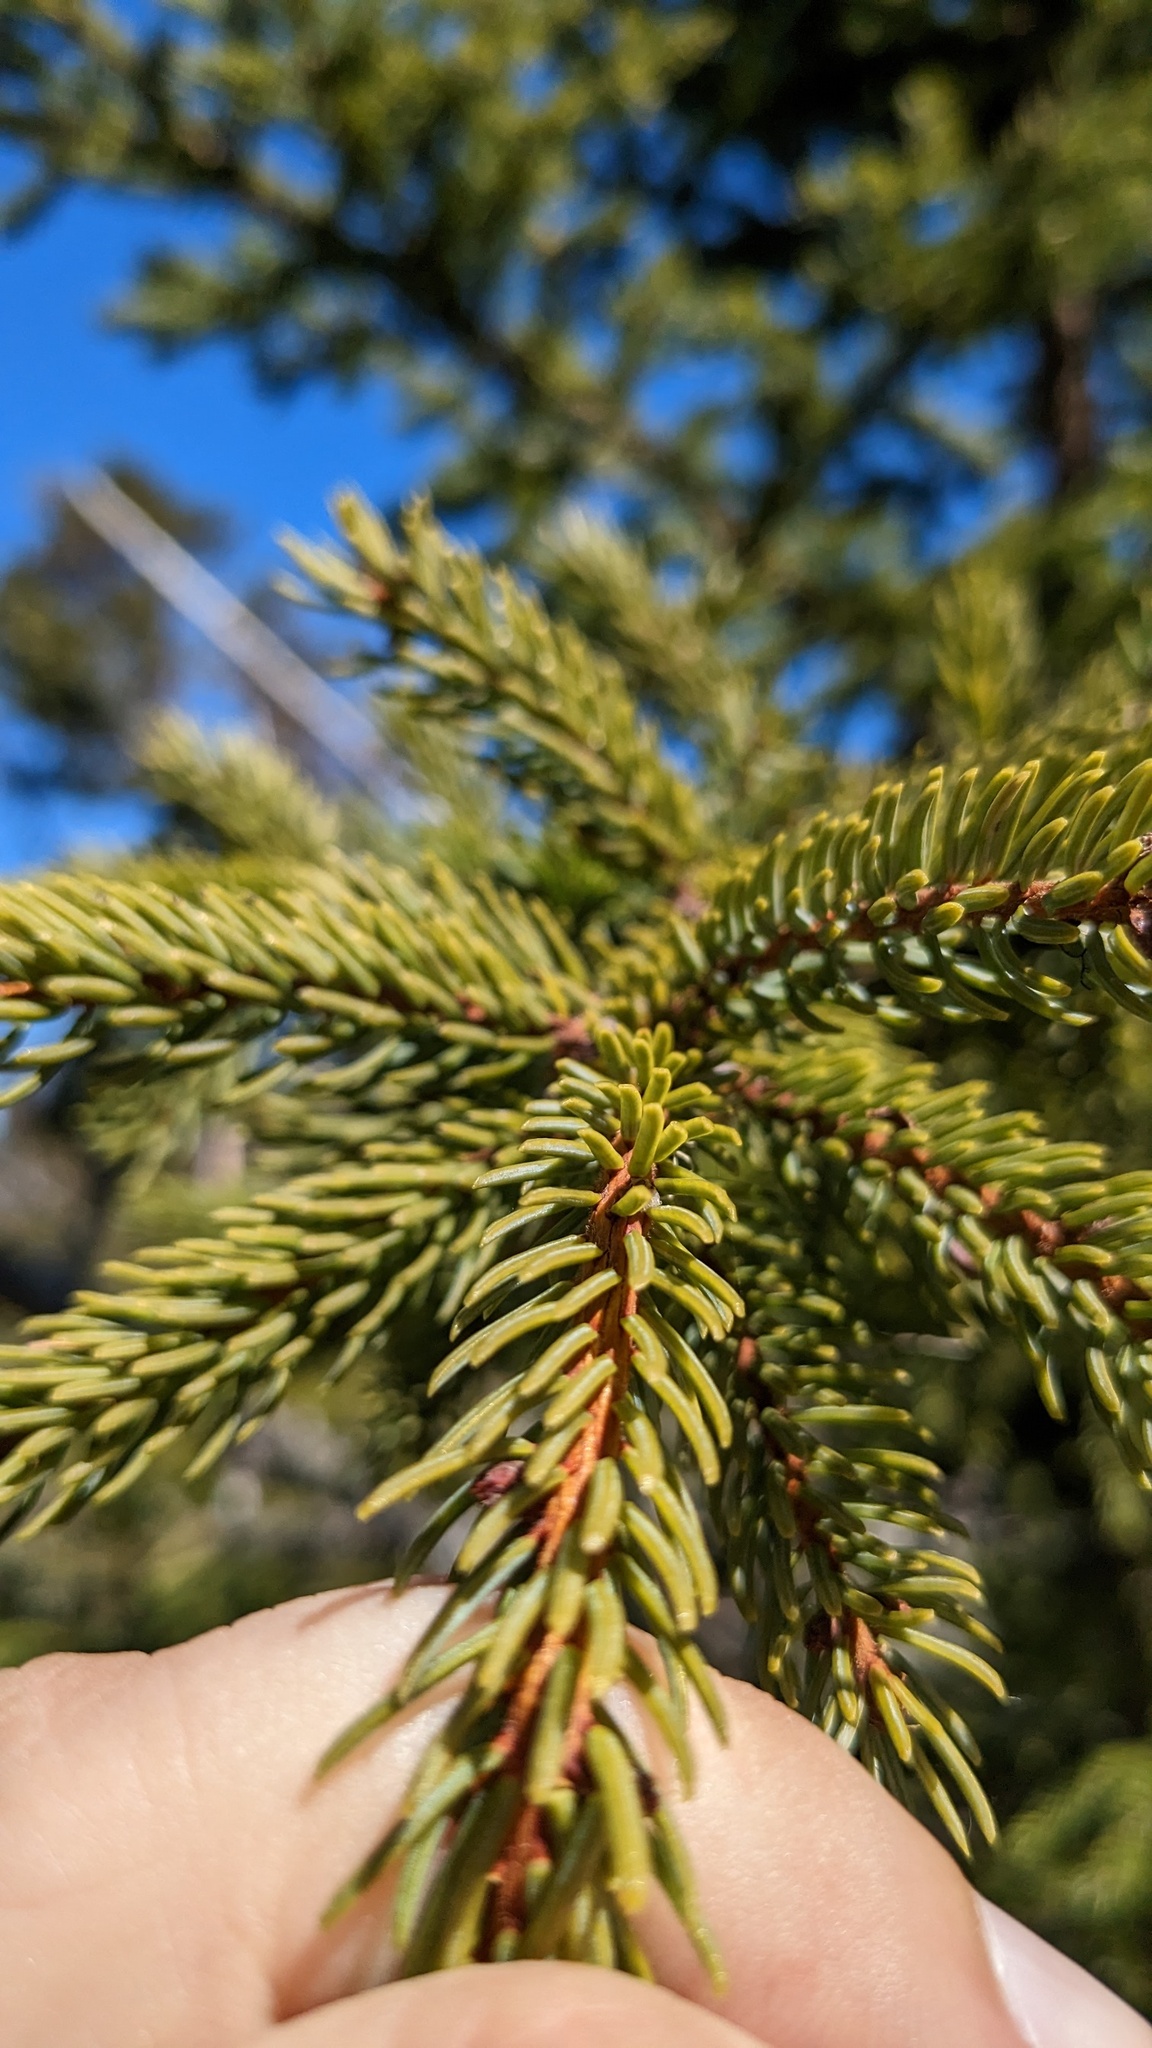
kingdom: Plantae
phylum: Tracheophyta
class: Pinopsida
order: Pinales
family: Pinaceae
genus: Picea
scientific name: Picea mariana
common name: Black spruce
